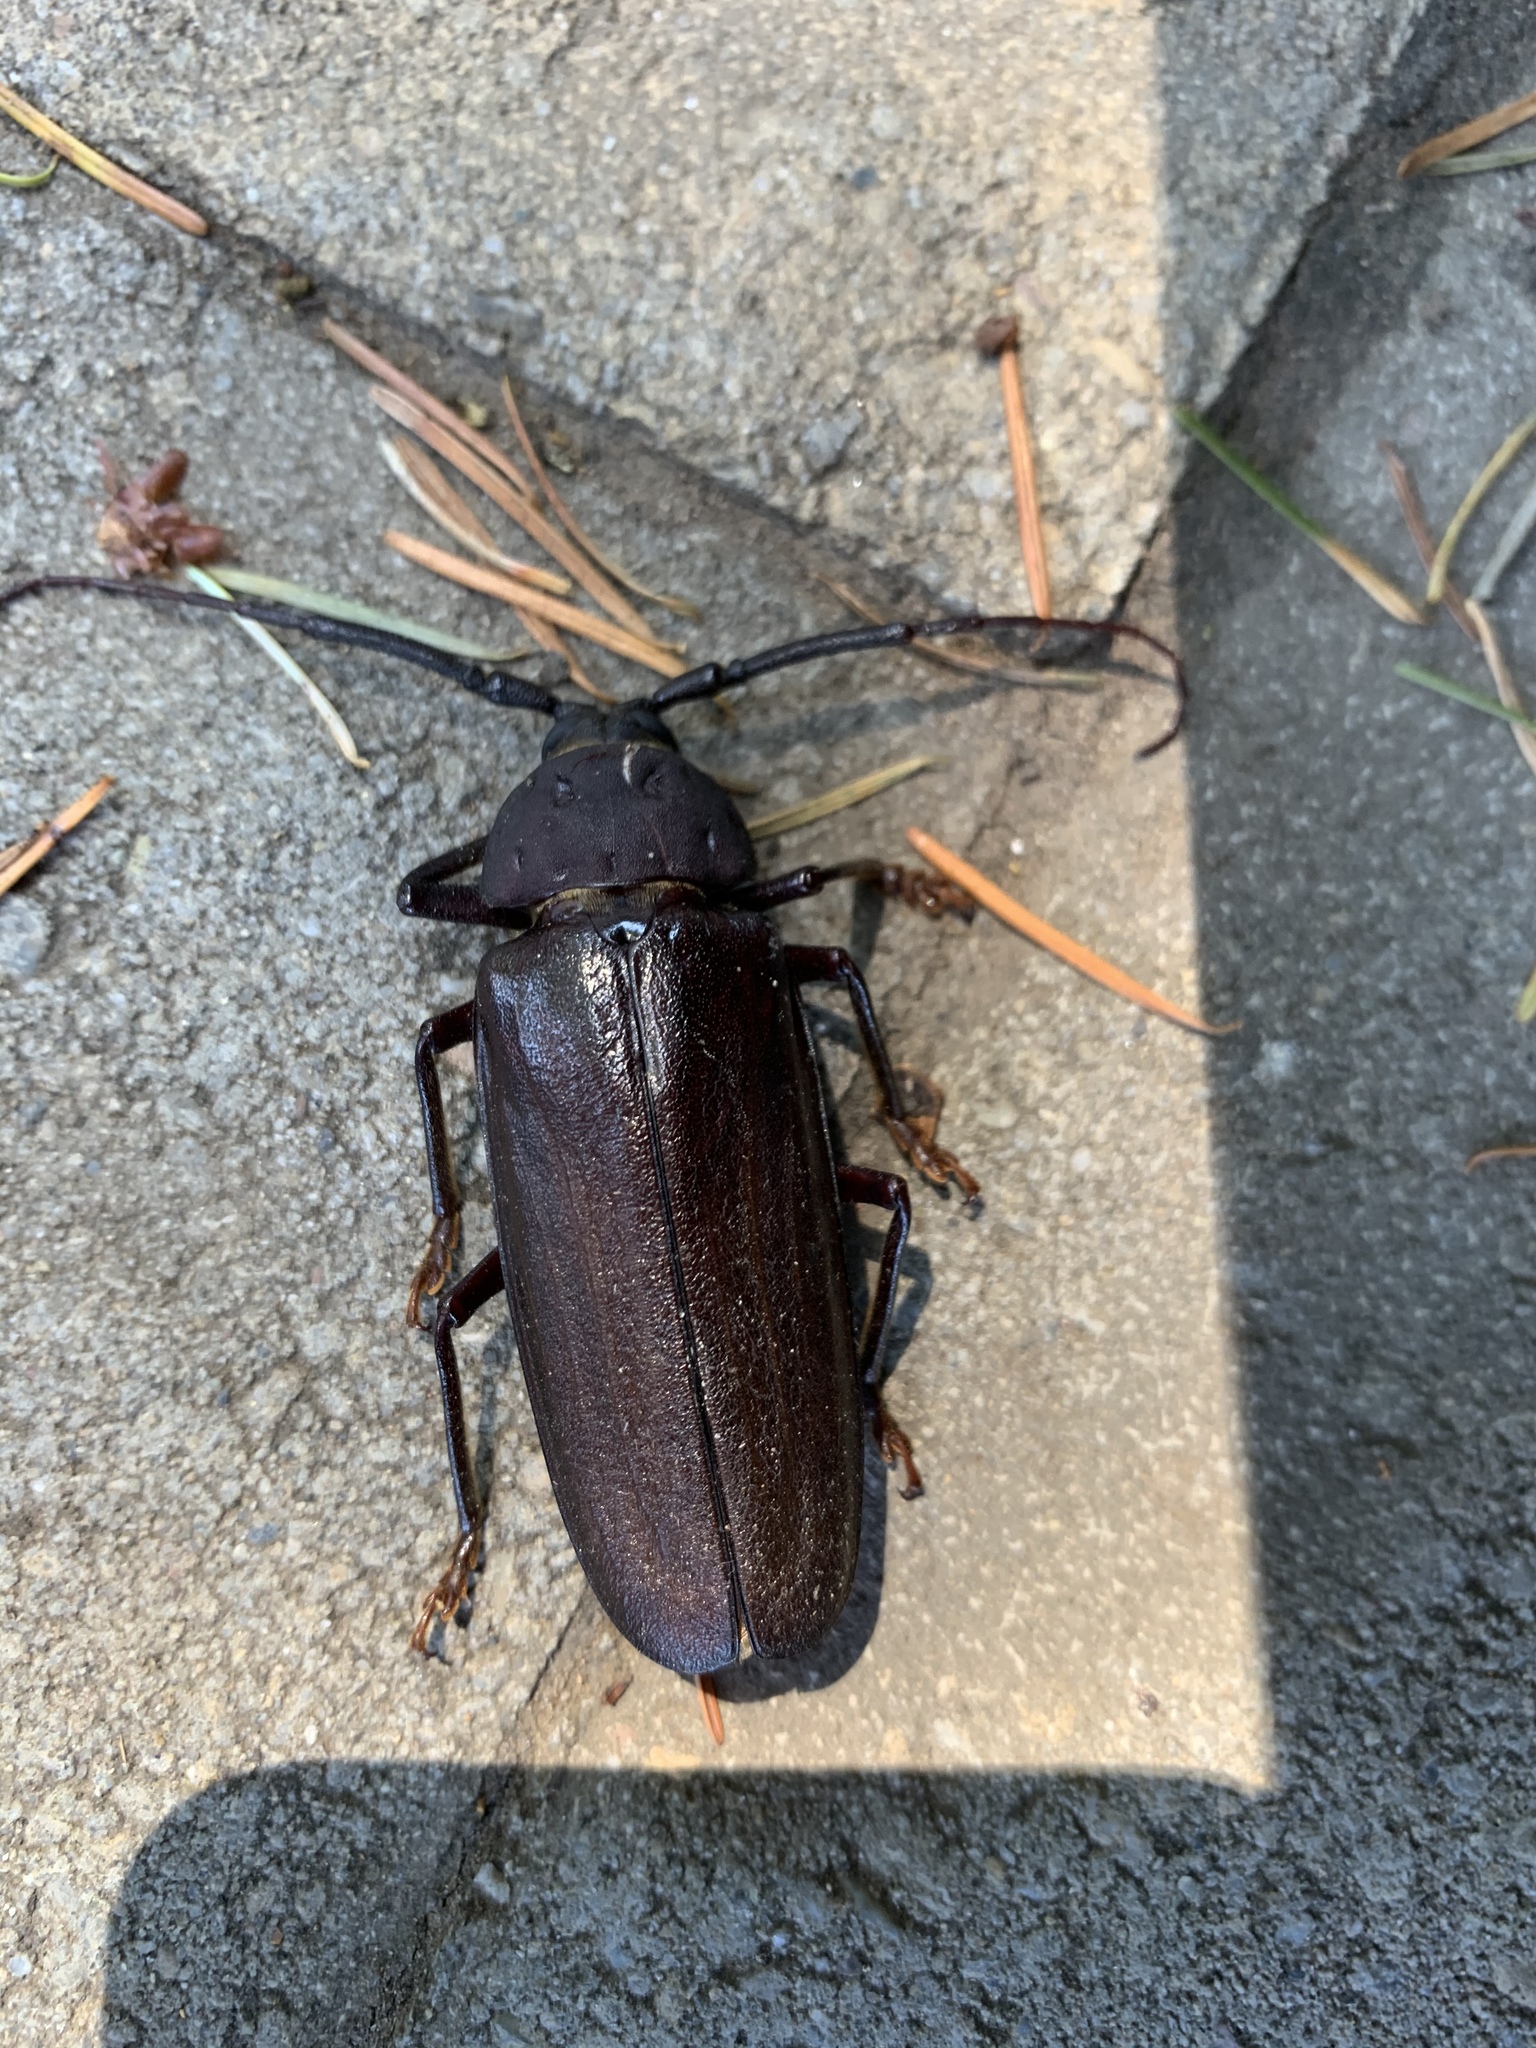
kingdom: Animalia
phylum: Arthropoda
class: Insecta
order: Coleoptera
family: Cerambycidae
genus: Trichocnemis
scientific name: Trichocnemis spiculatus
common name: Long-horned beetle
